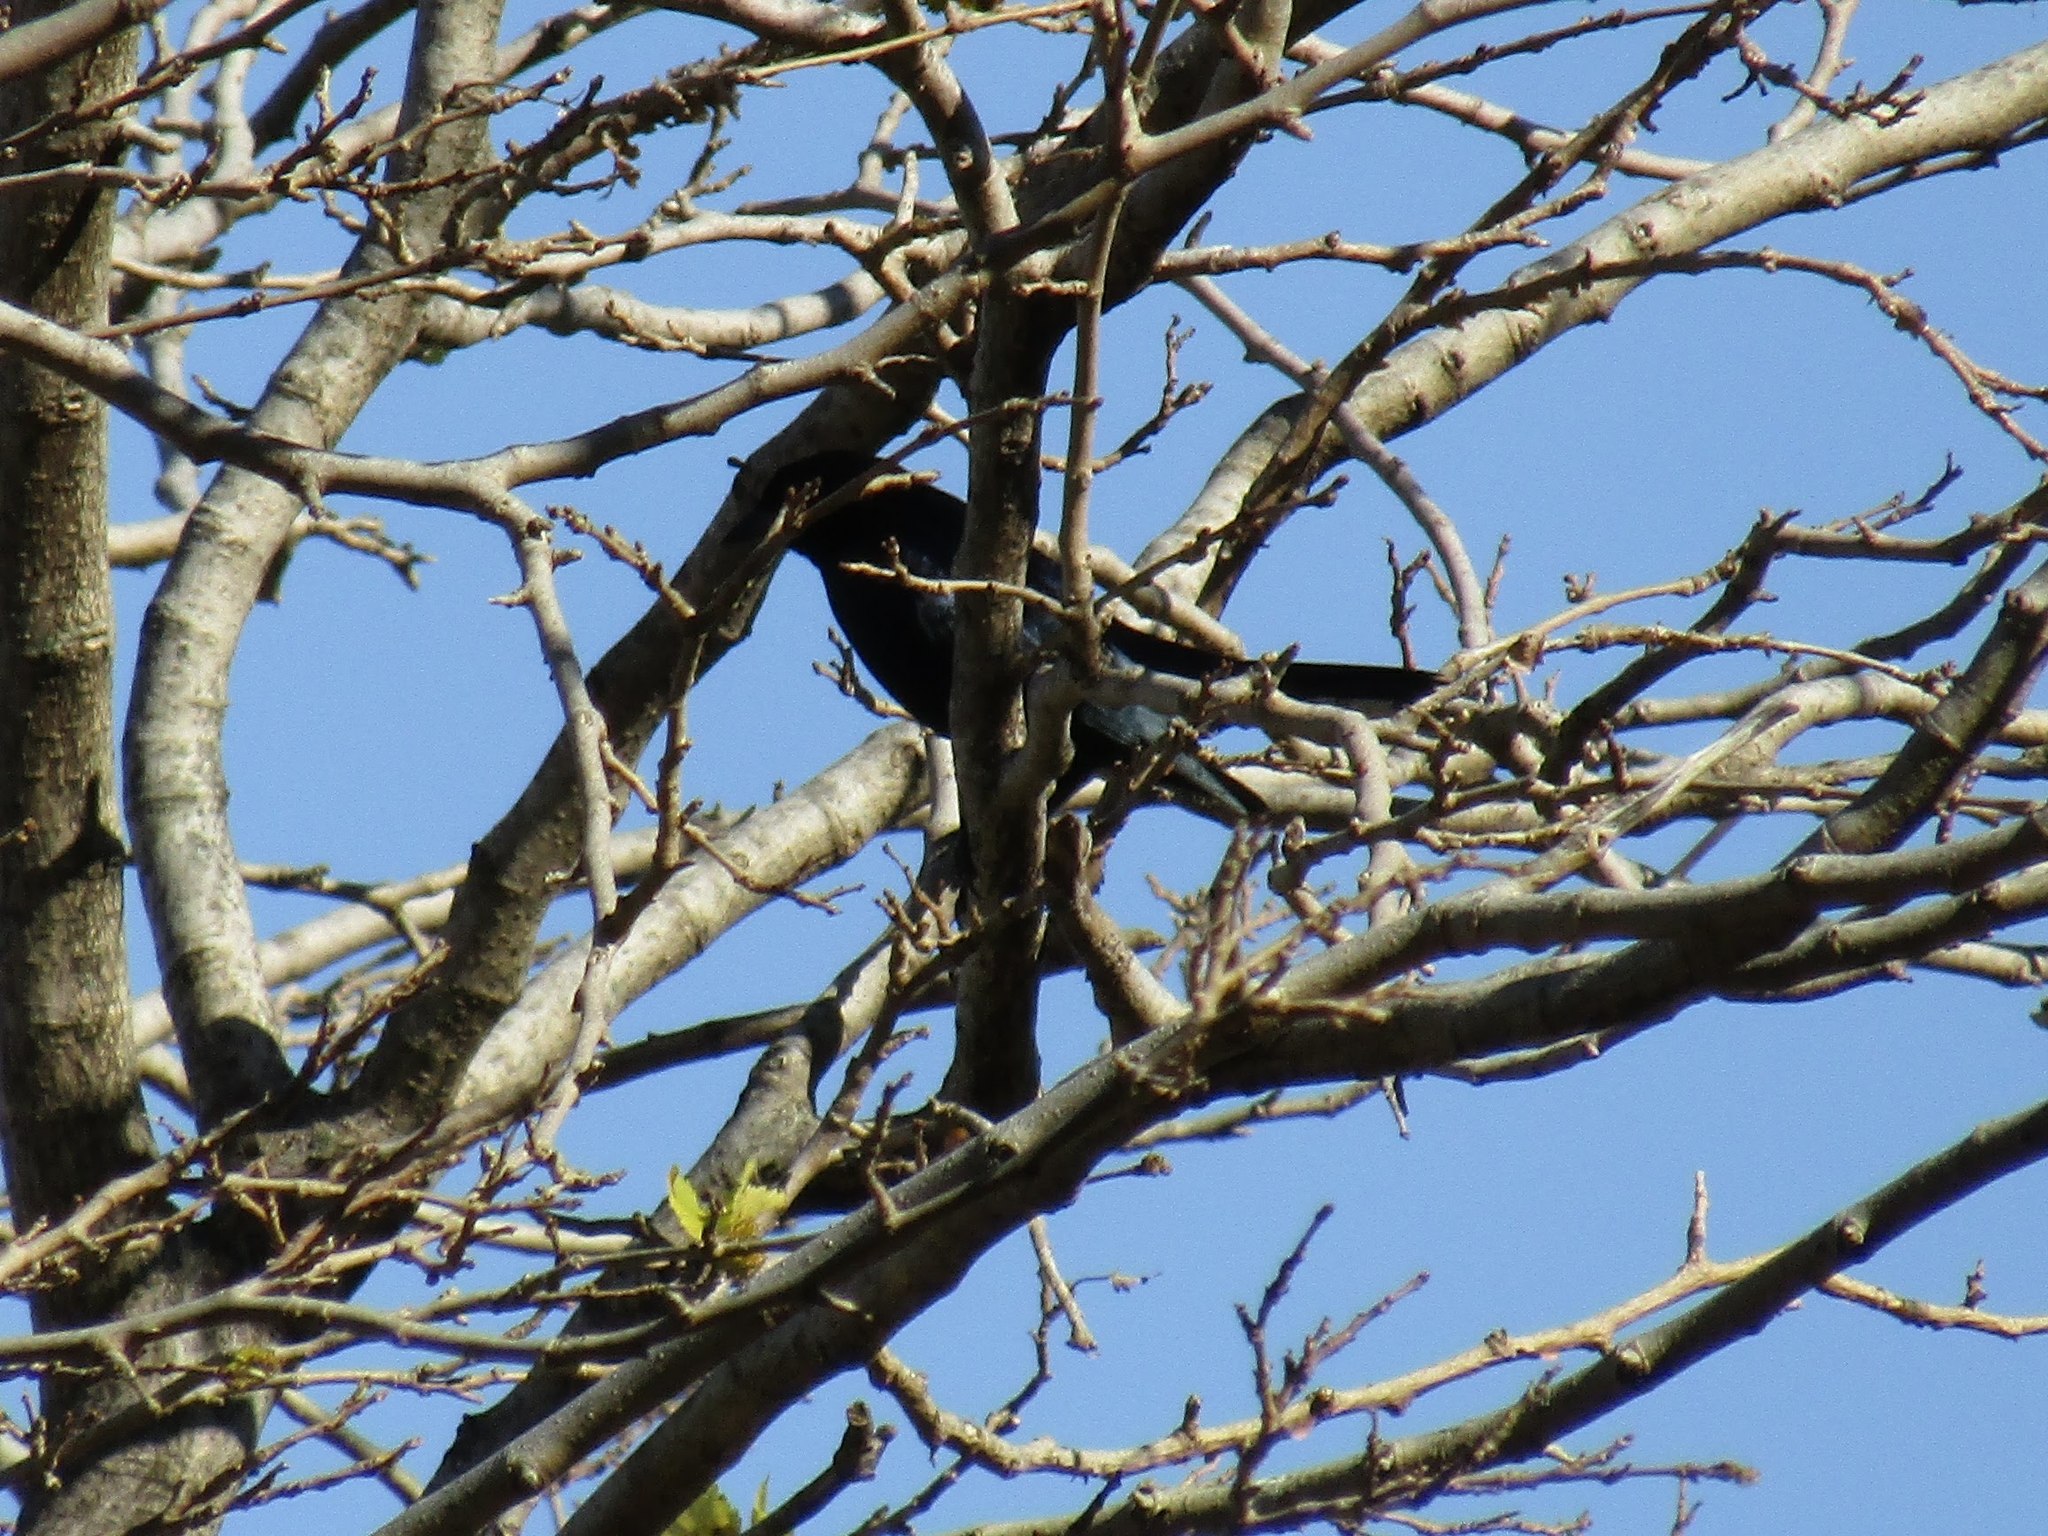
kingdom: Animalia
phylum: Chordata
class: Aves
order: Passeriformes
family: Icteridae
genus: Molothrus
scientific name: Molothrus bonariensis
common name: Shiny cowbird
